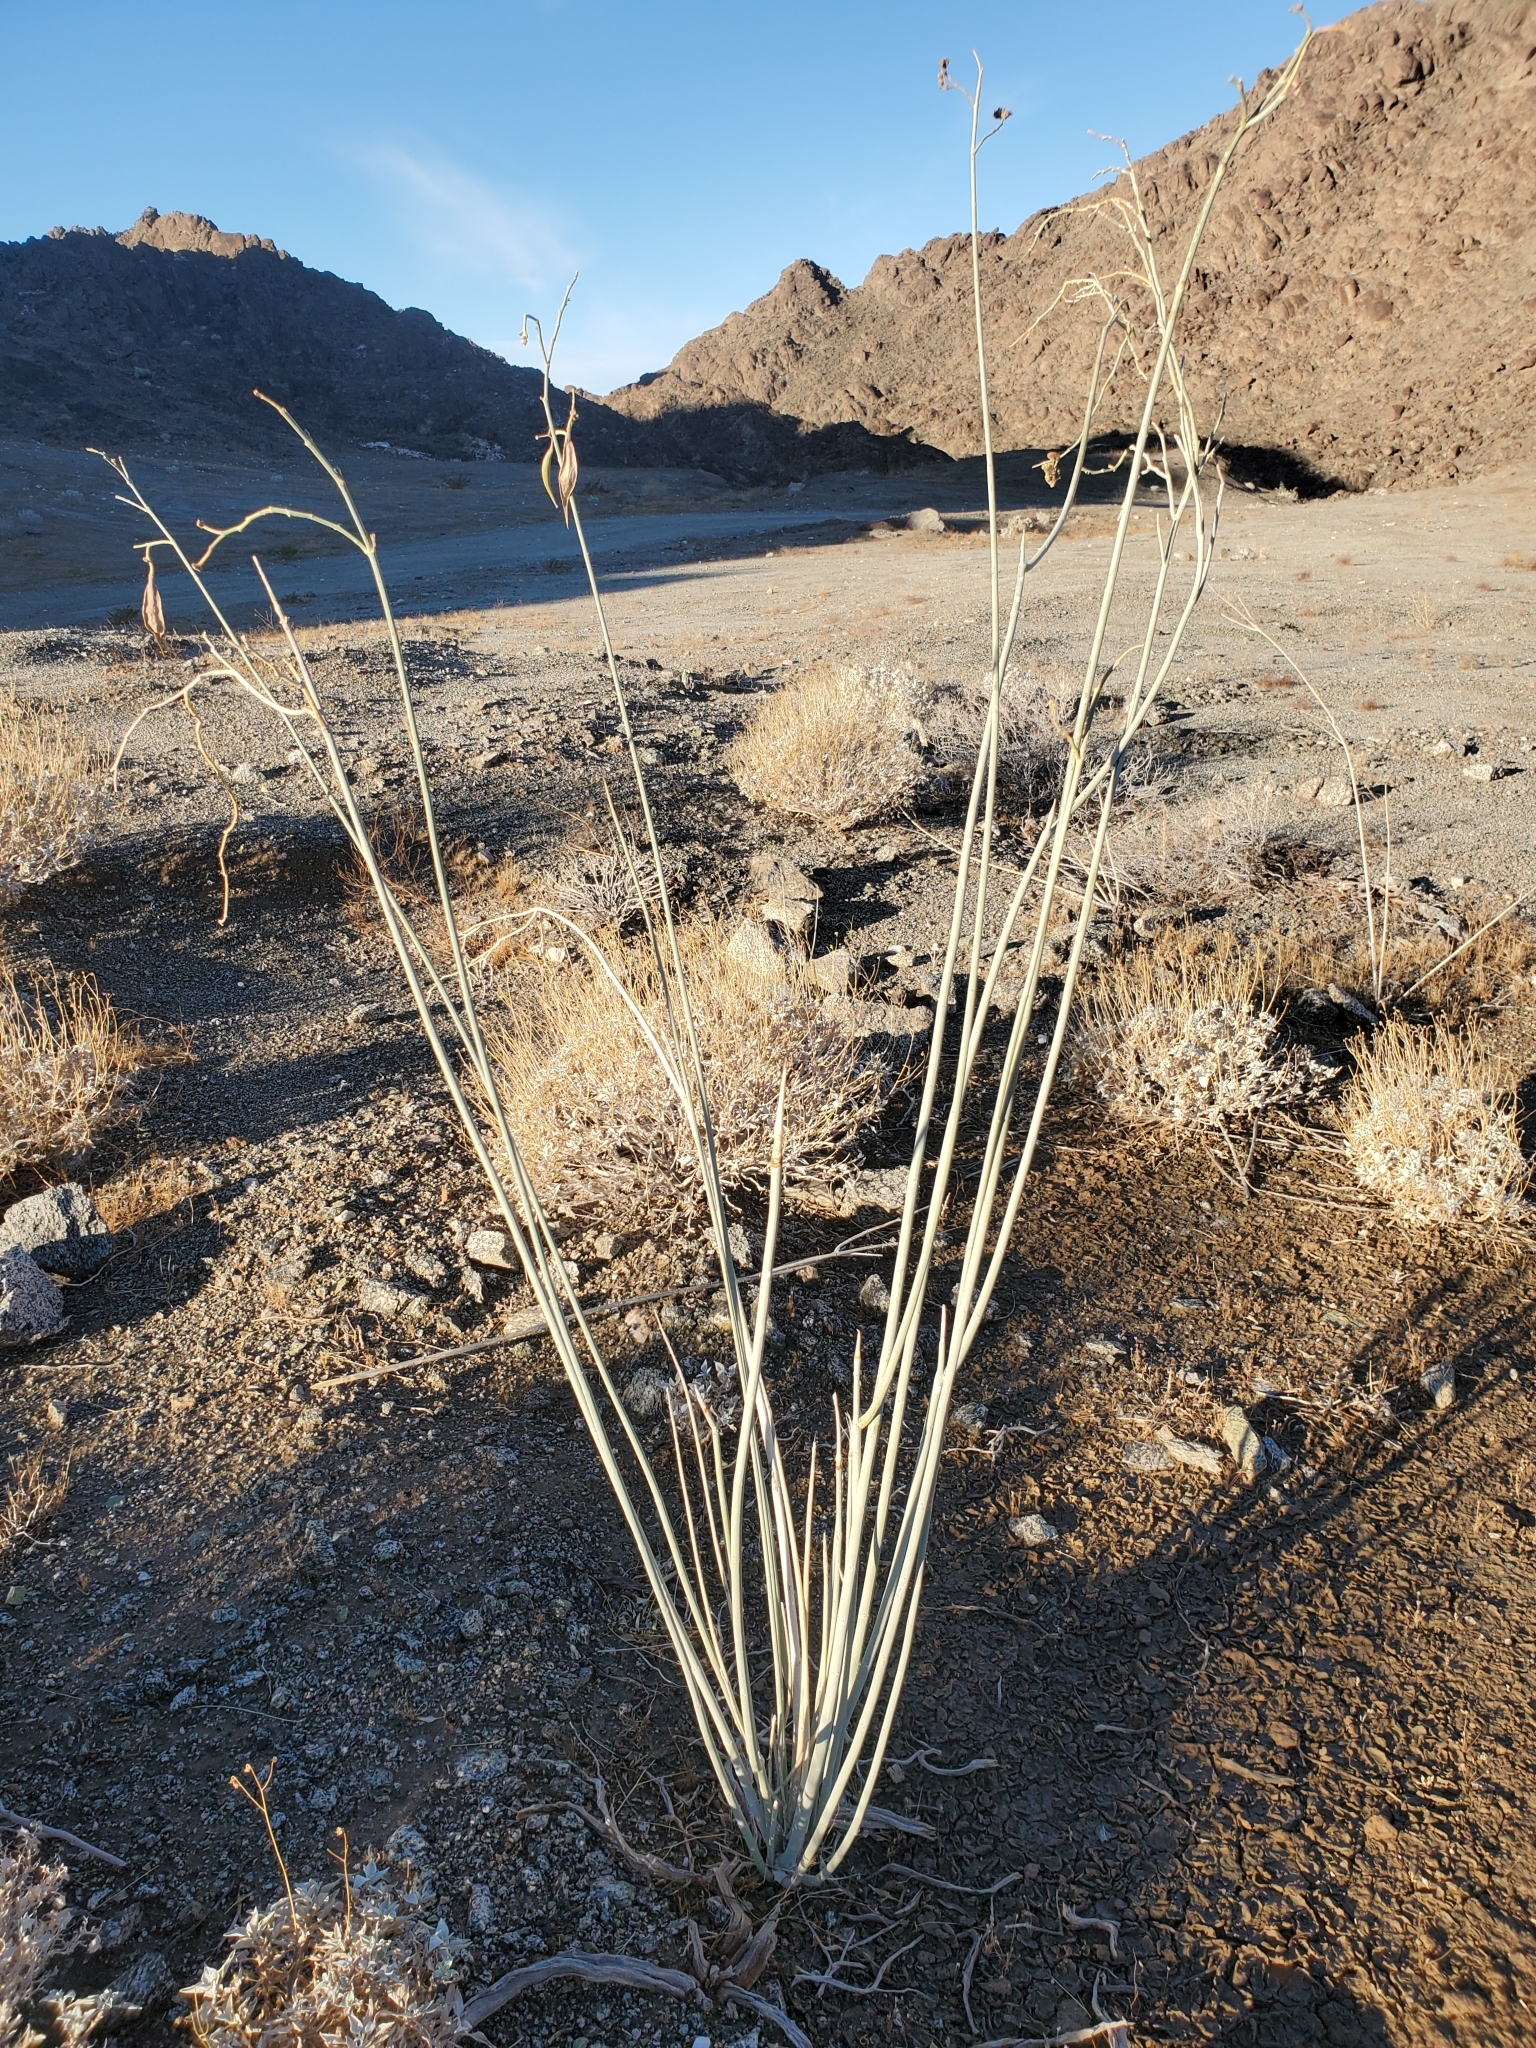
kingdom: Plantae
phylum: Tracheophyta
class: Magnoliopsida
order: Gentianales
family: Apocynaceae
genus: Asclepias
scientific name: Asclepias albicans
